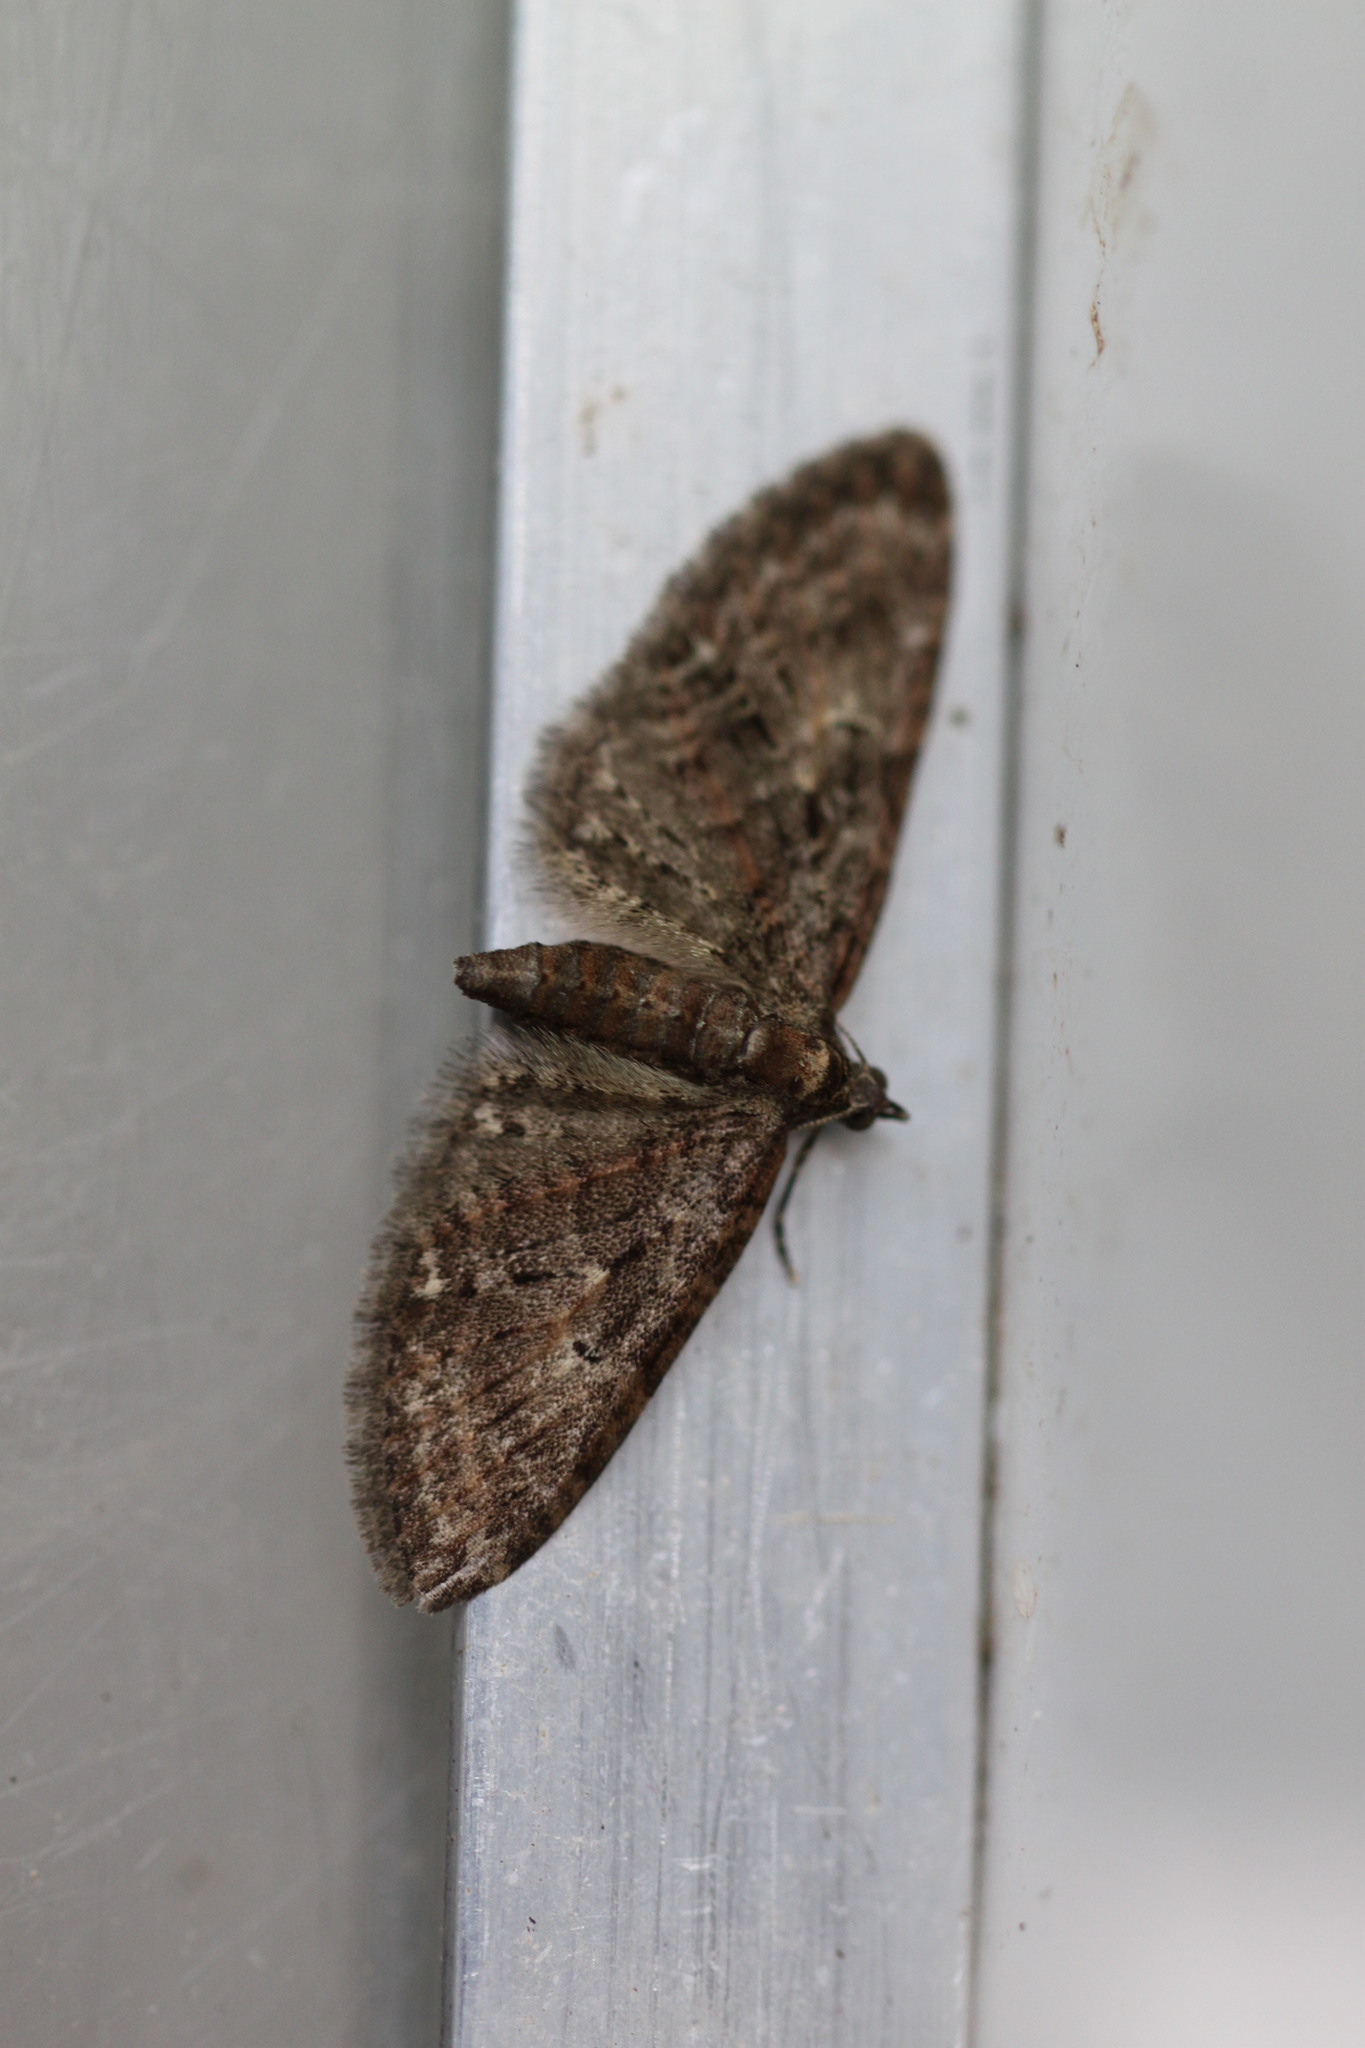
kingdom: Animalia
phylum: Arthropoda
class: Insecta
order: Lepidoptera
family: Geometridae
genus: Eupithecia
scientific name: Eupithecia abbreviata
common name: Brindled pug
